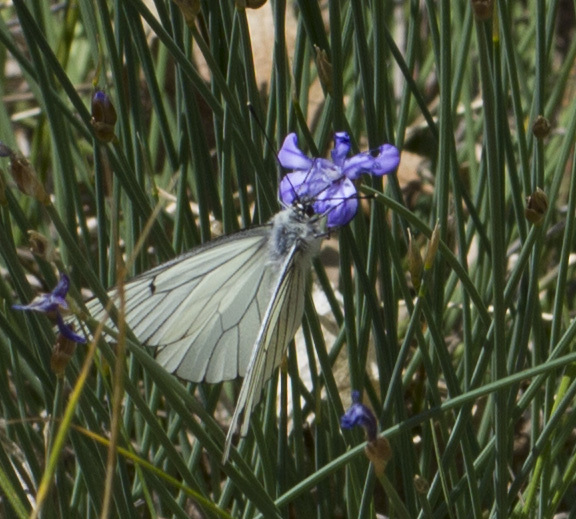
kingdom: Animalia
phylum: Arthropoda
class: Insecta
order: Lepidoptera
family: Pieridae
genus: Aporia
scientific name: Aporia crataegi
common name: Black-veined white
